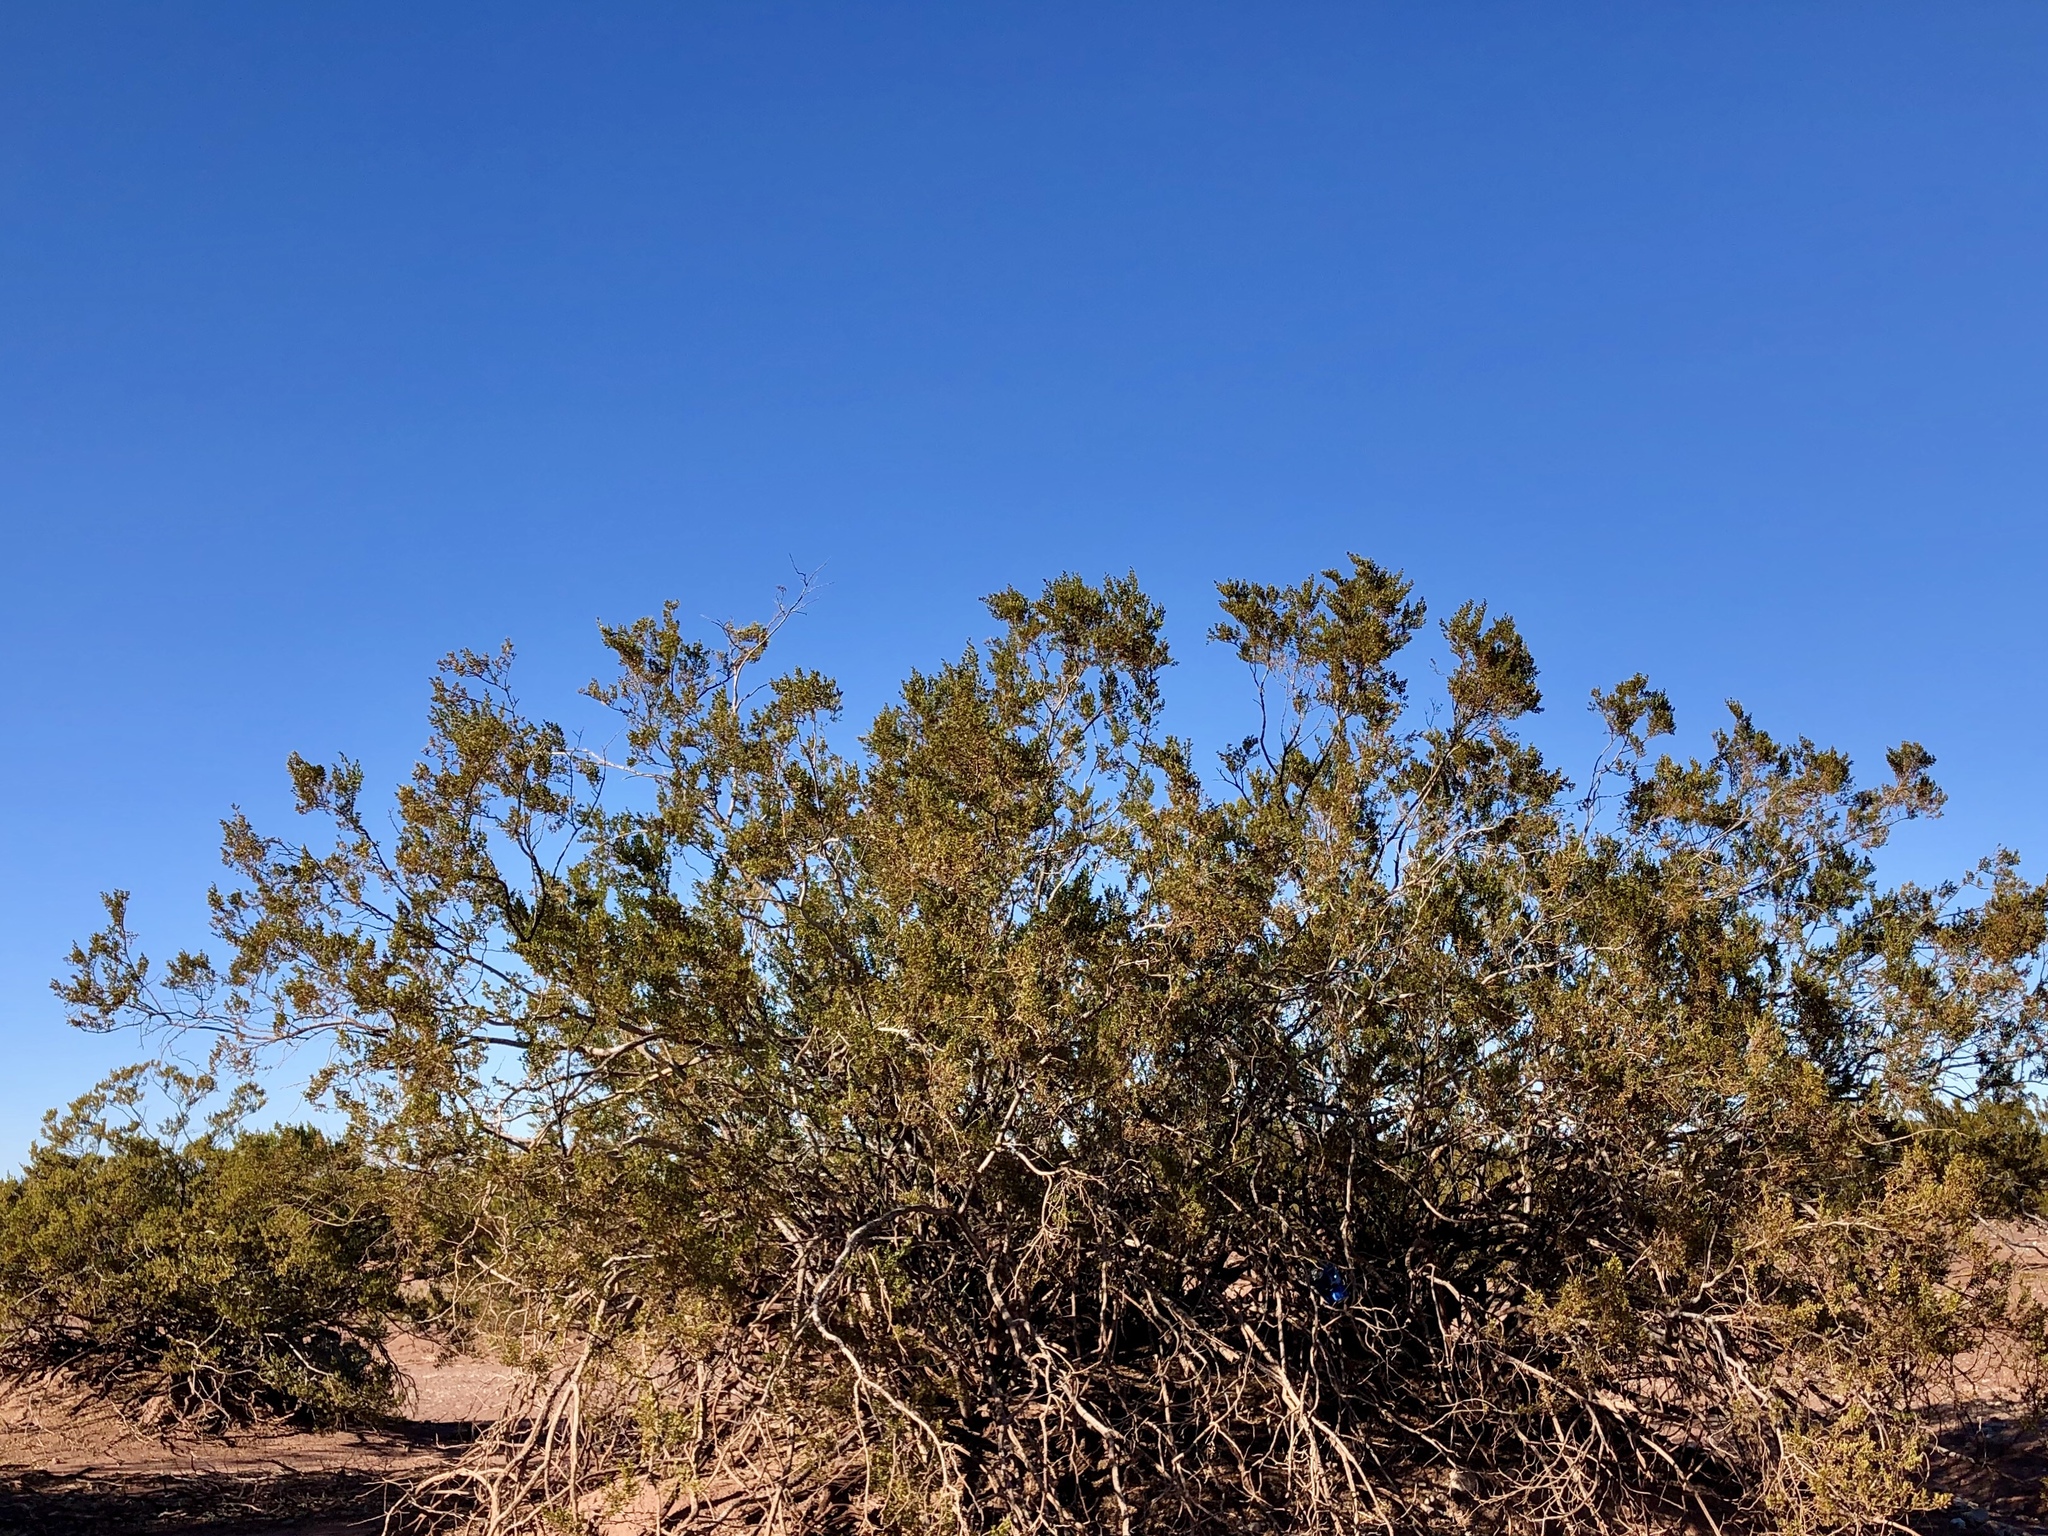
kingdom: Plantae
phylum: Tracheophyta
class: Magnoliopsida
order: Zygophyllales
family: Zygophyllaceae
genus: Larrea
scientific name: Larrea tridentata
